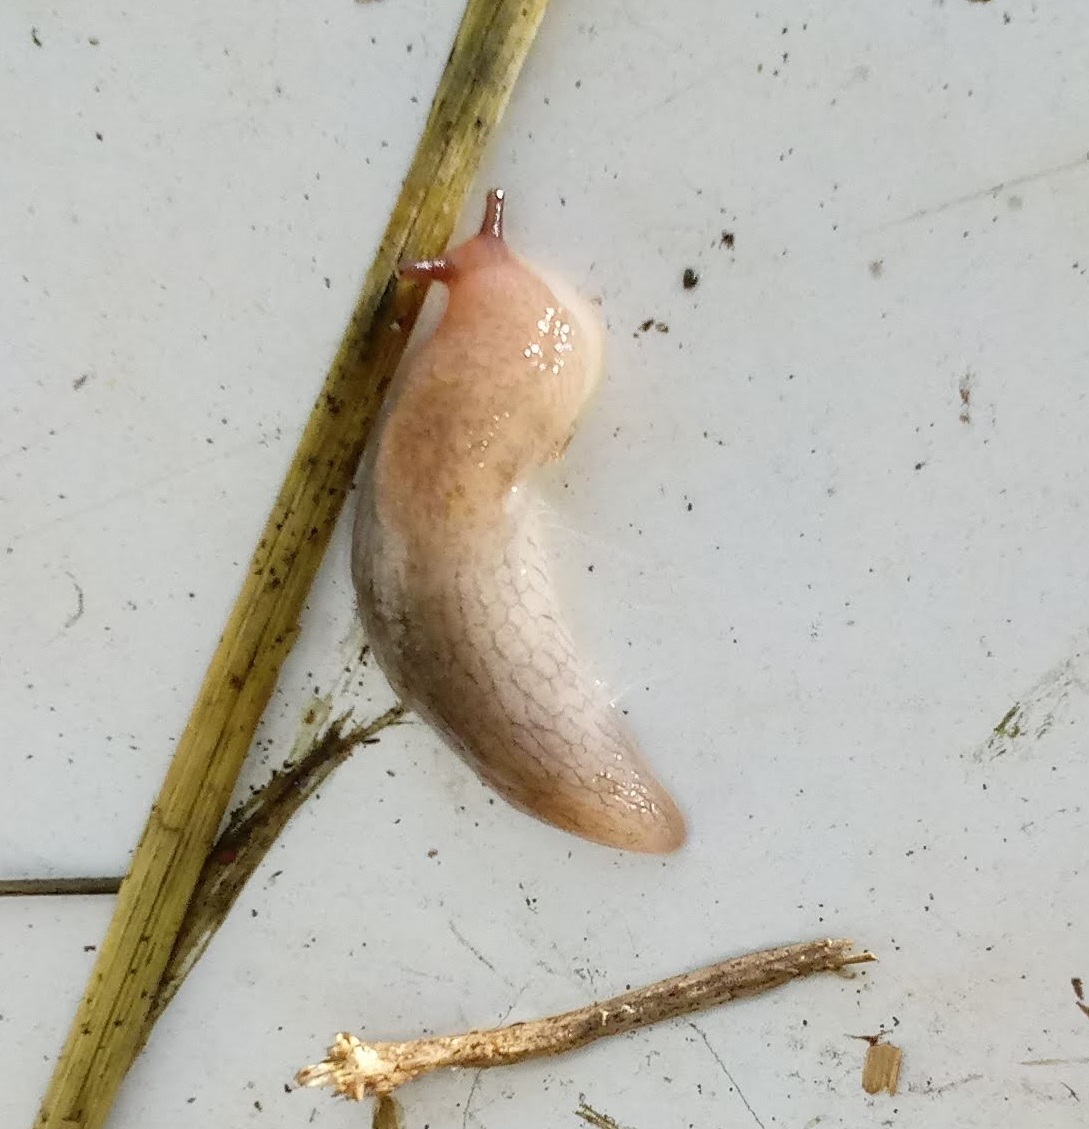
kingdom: Animalia
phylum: Mollusca
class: Gastropoda
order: Stylommatophora
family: Agriolimacidae
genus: Deroceras
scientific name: Deroceras reticulatum
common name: Gray field slug
